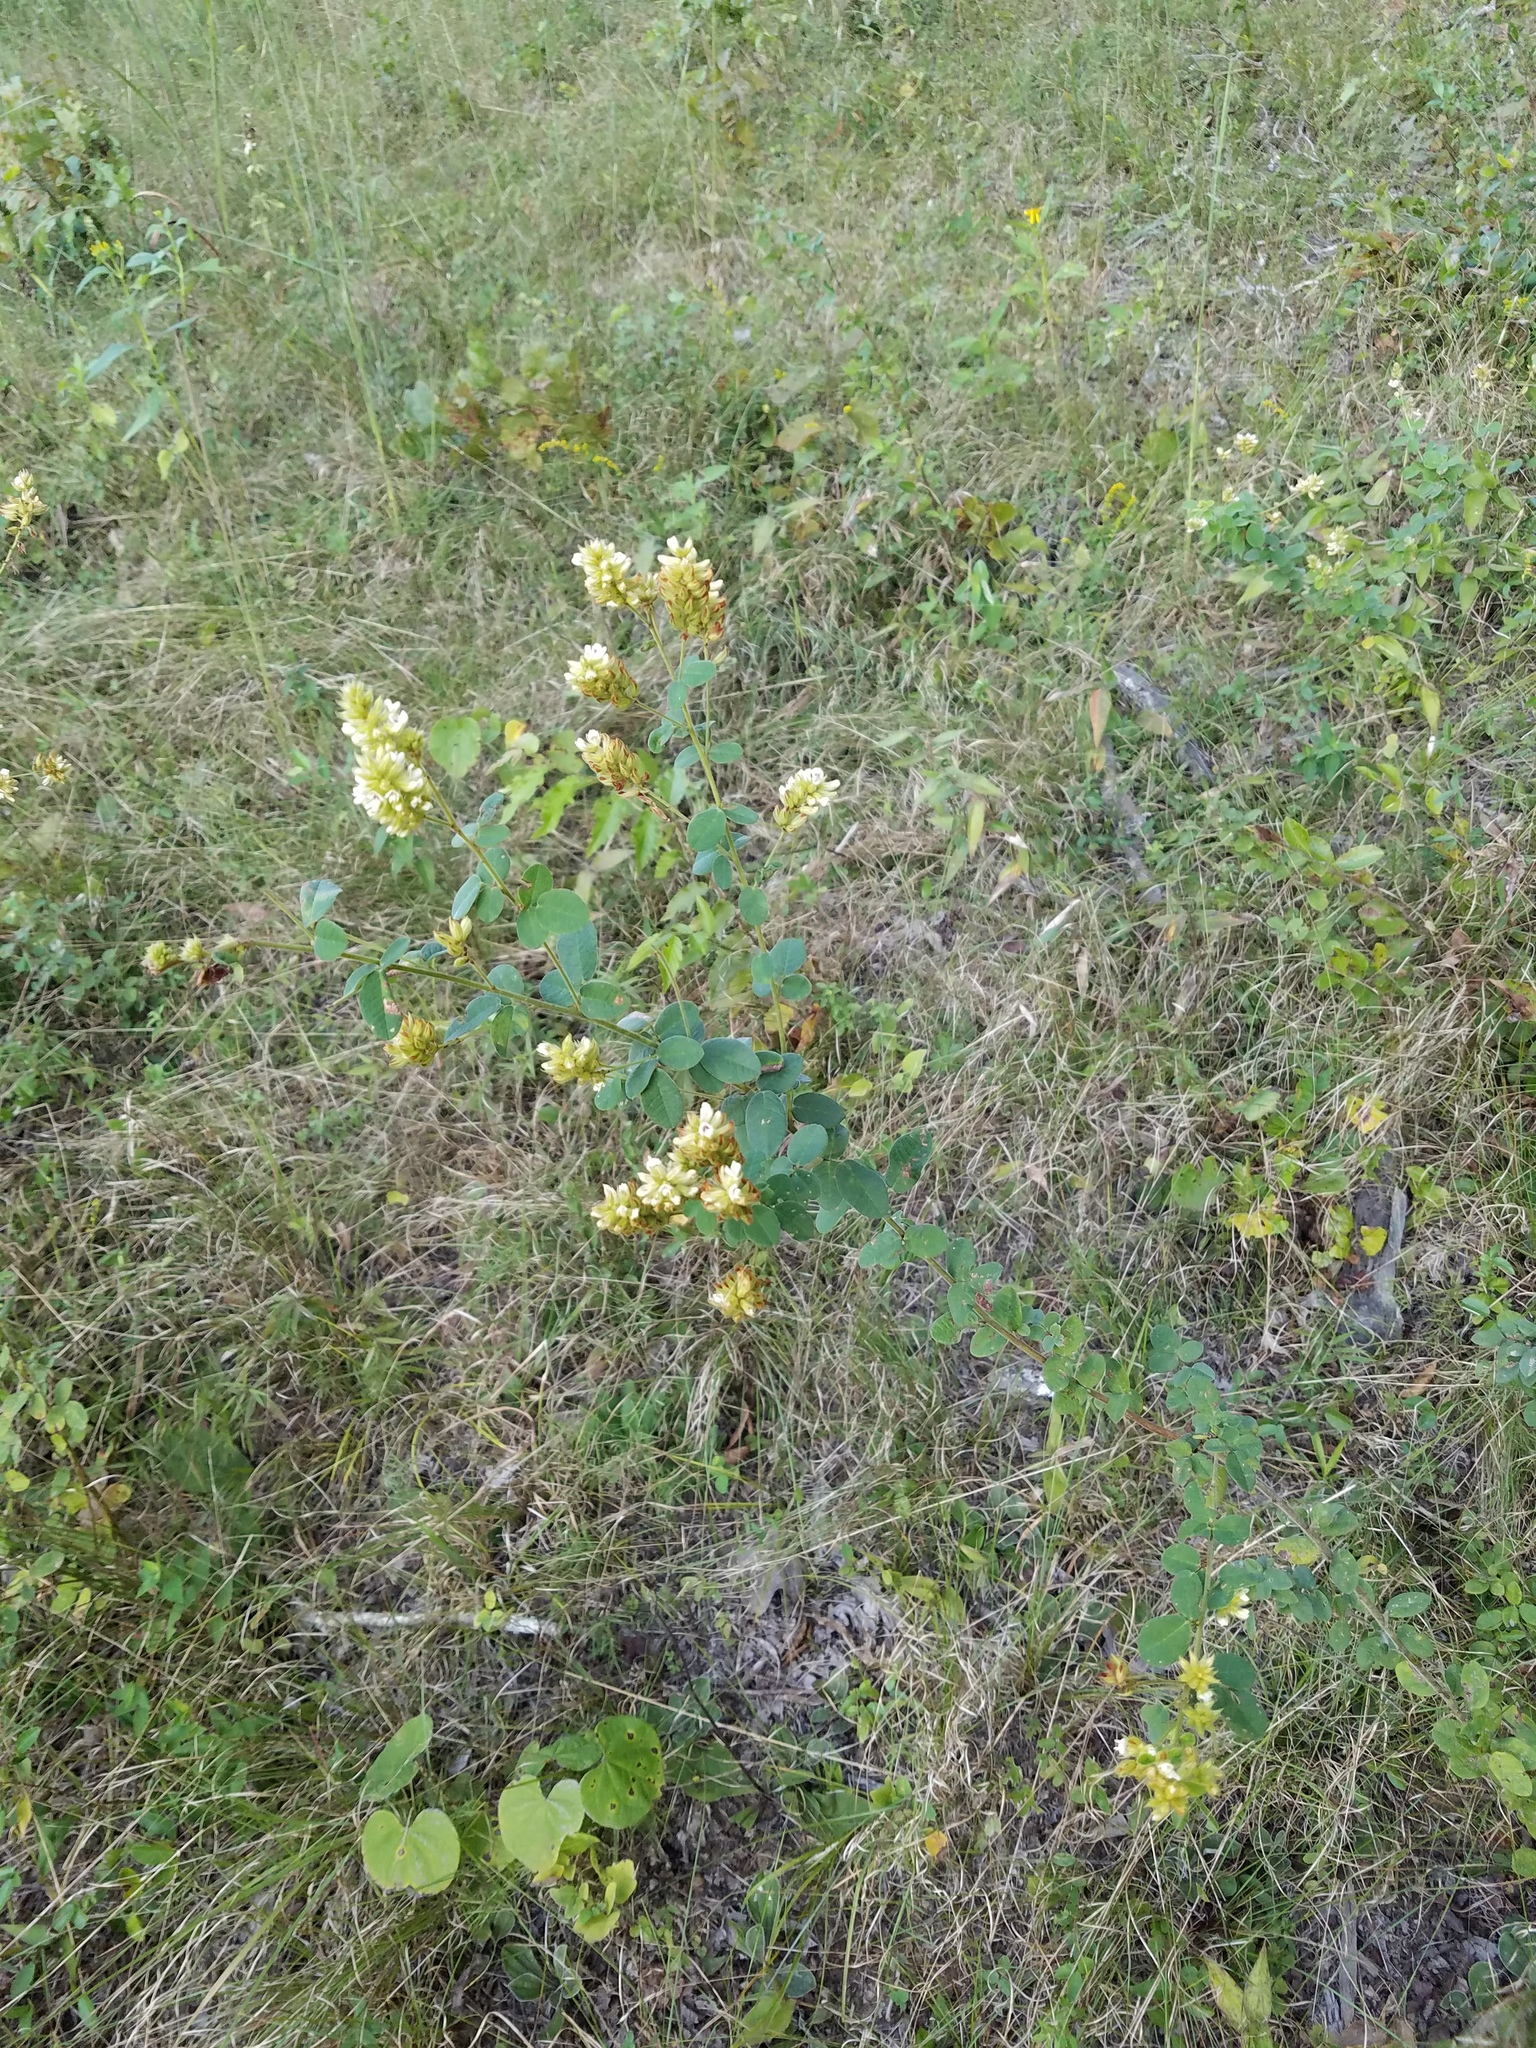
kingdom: Plantae
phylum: Tracheophyta
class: Magnoliopsida
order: Fabales
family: Fabaceae
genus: Lespedeza
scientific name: Lespedeza hirta
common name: Hairy lespedeza
